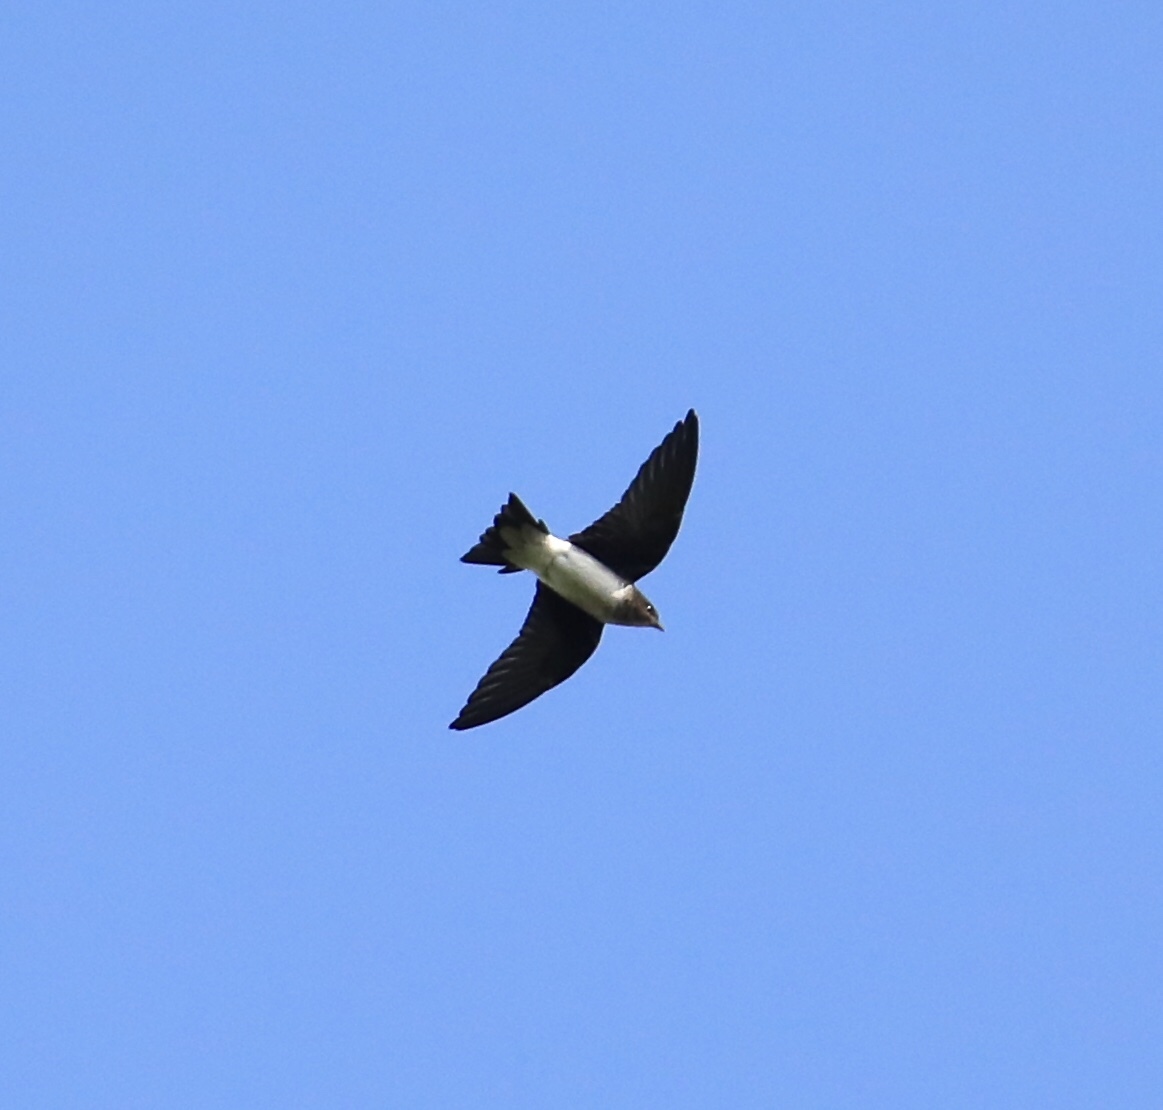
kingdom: Animalia
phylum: Chordata
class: Aves
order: Passeriformes
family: Hirundinidae
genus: Progne
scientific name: Progne chalybea
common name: Grey-breasted martin
